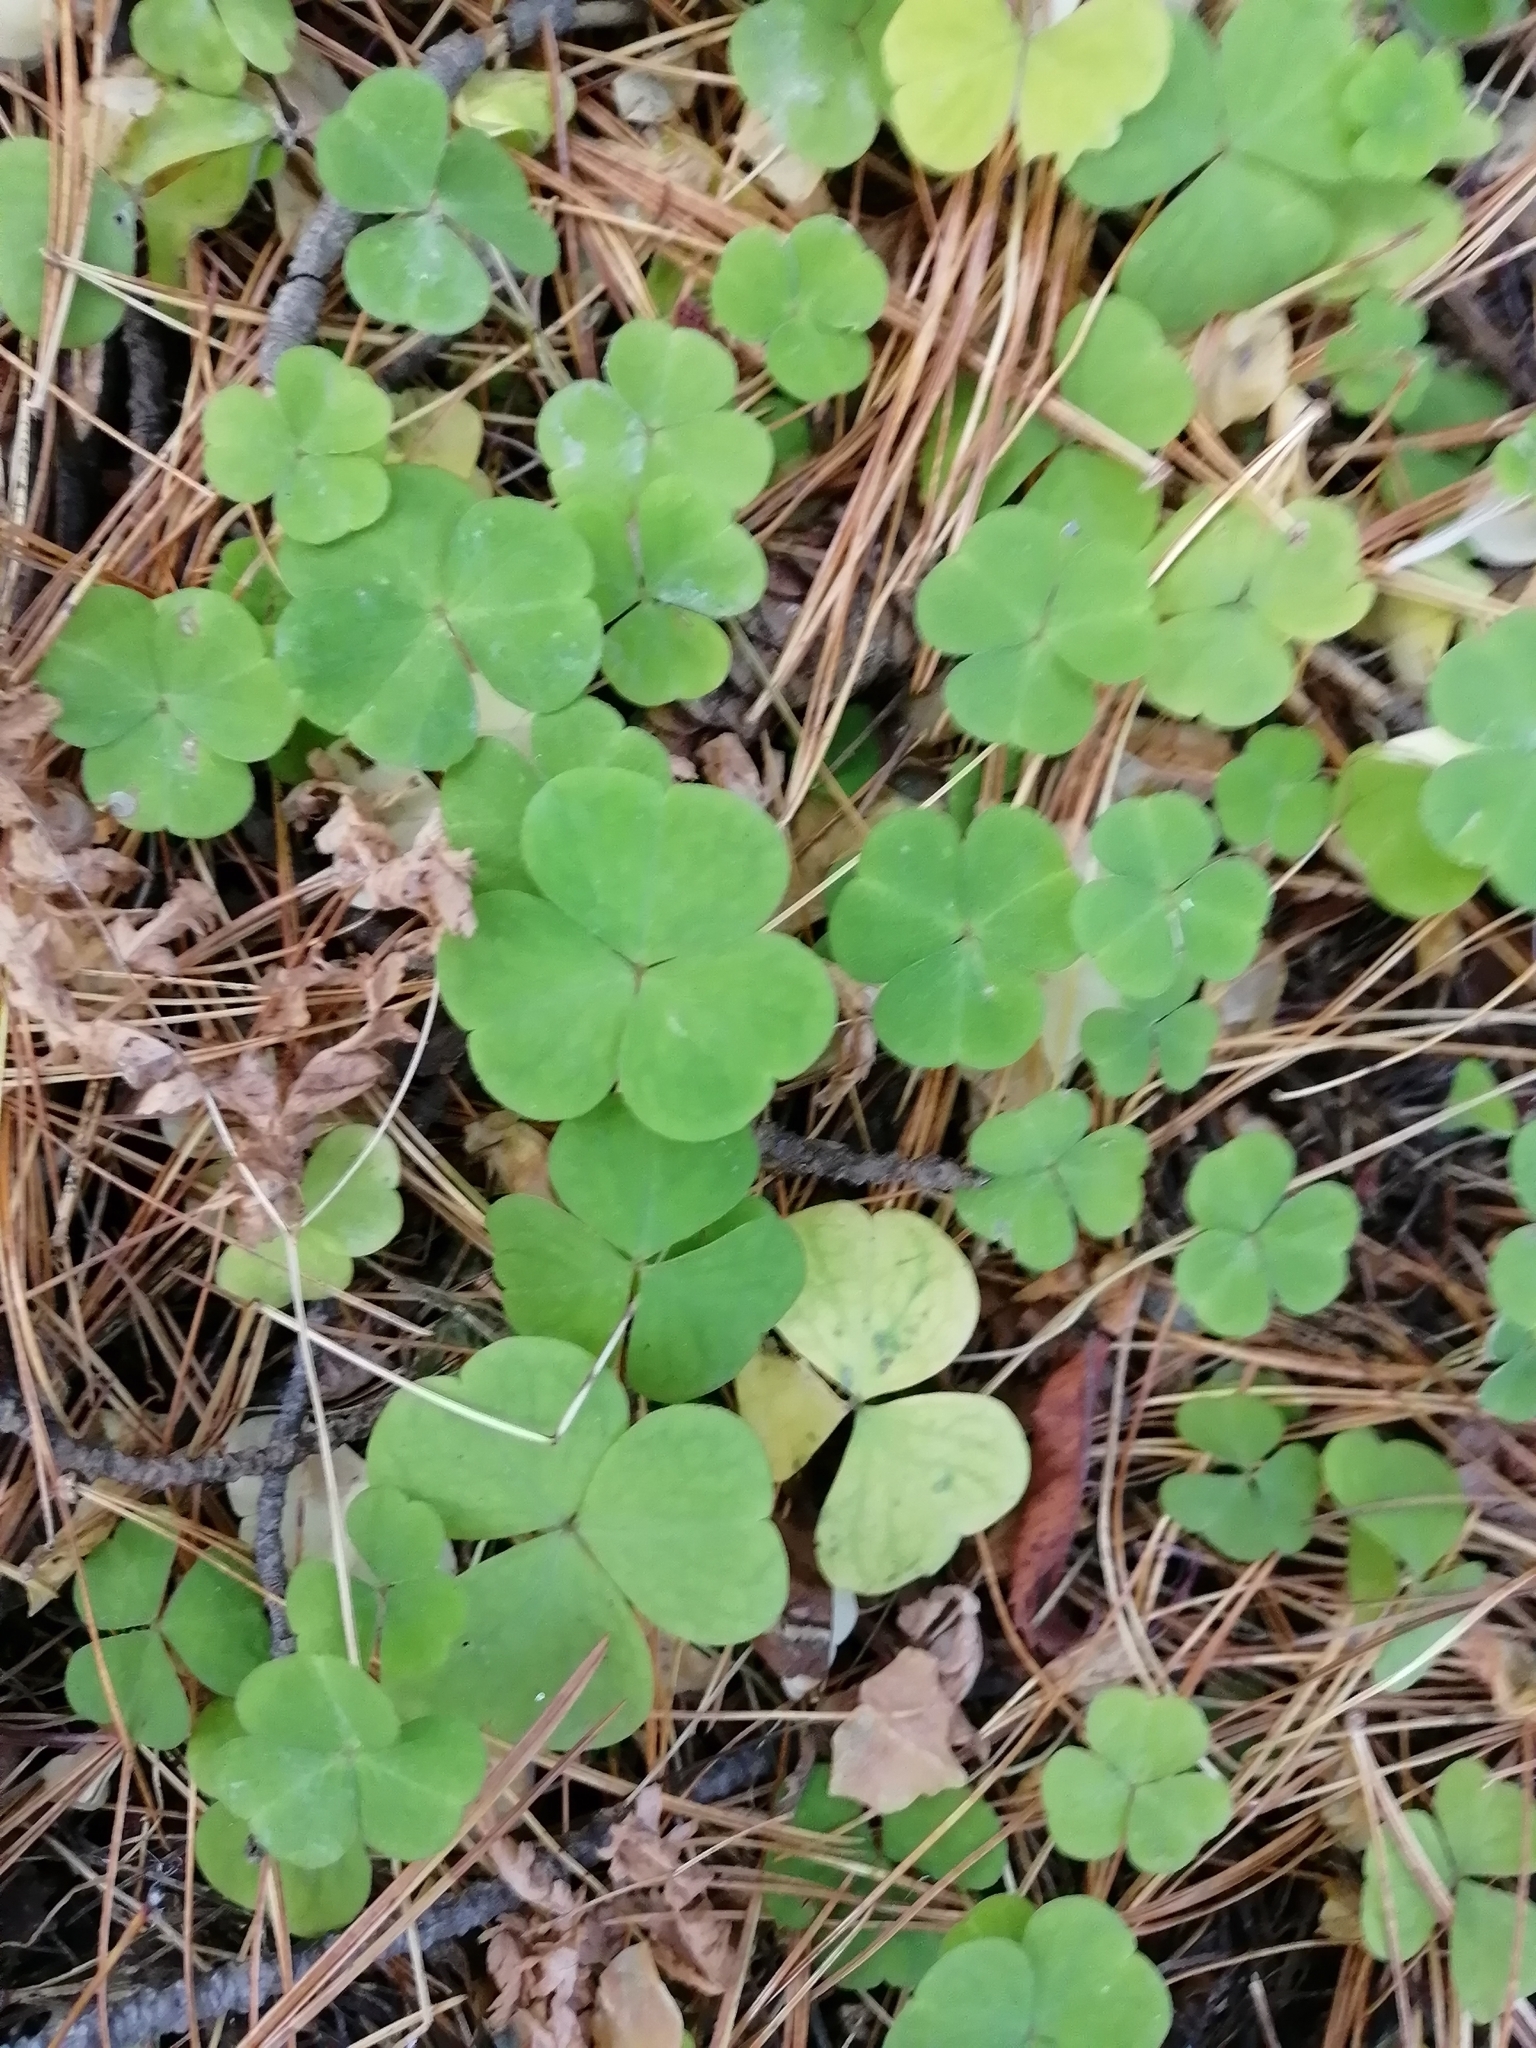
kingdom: Plantae
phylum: Tracheophyta
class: Magnoliopsida
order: Oxalidales
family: Oxalidaceae
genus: Oxalis
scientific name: Oxalis acetosella
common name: Wood-sorrel
